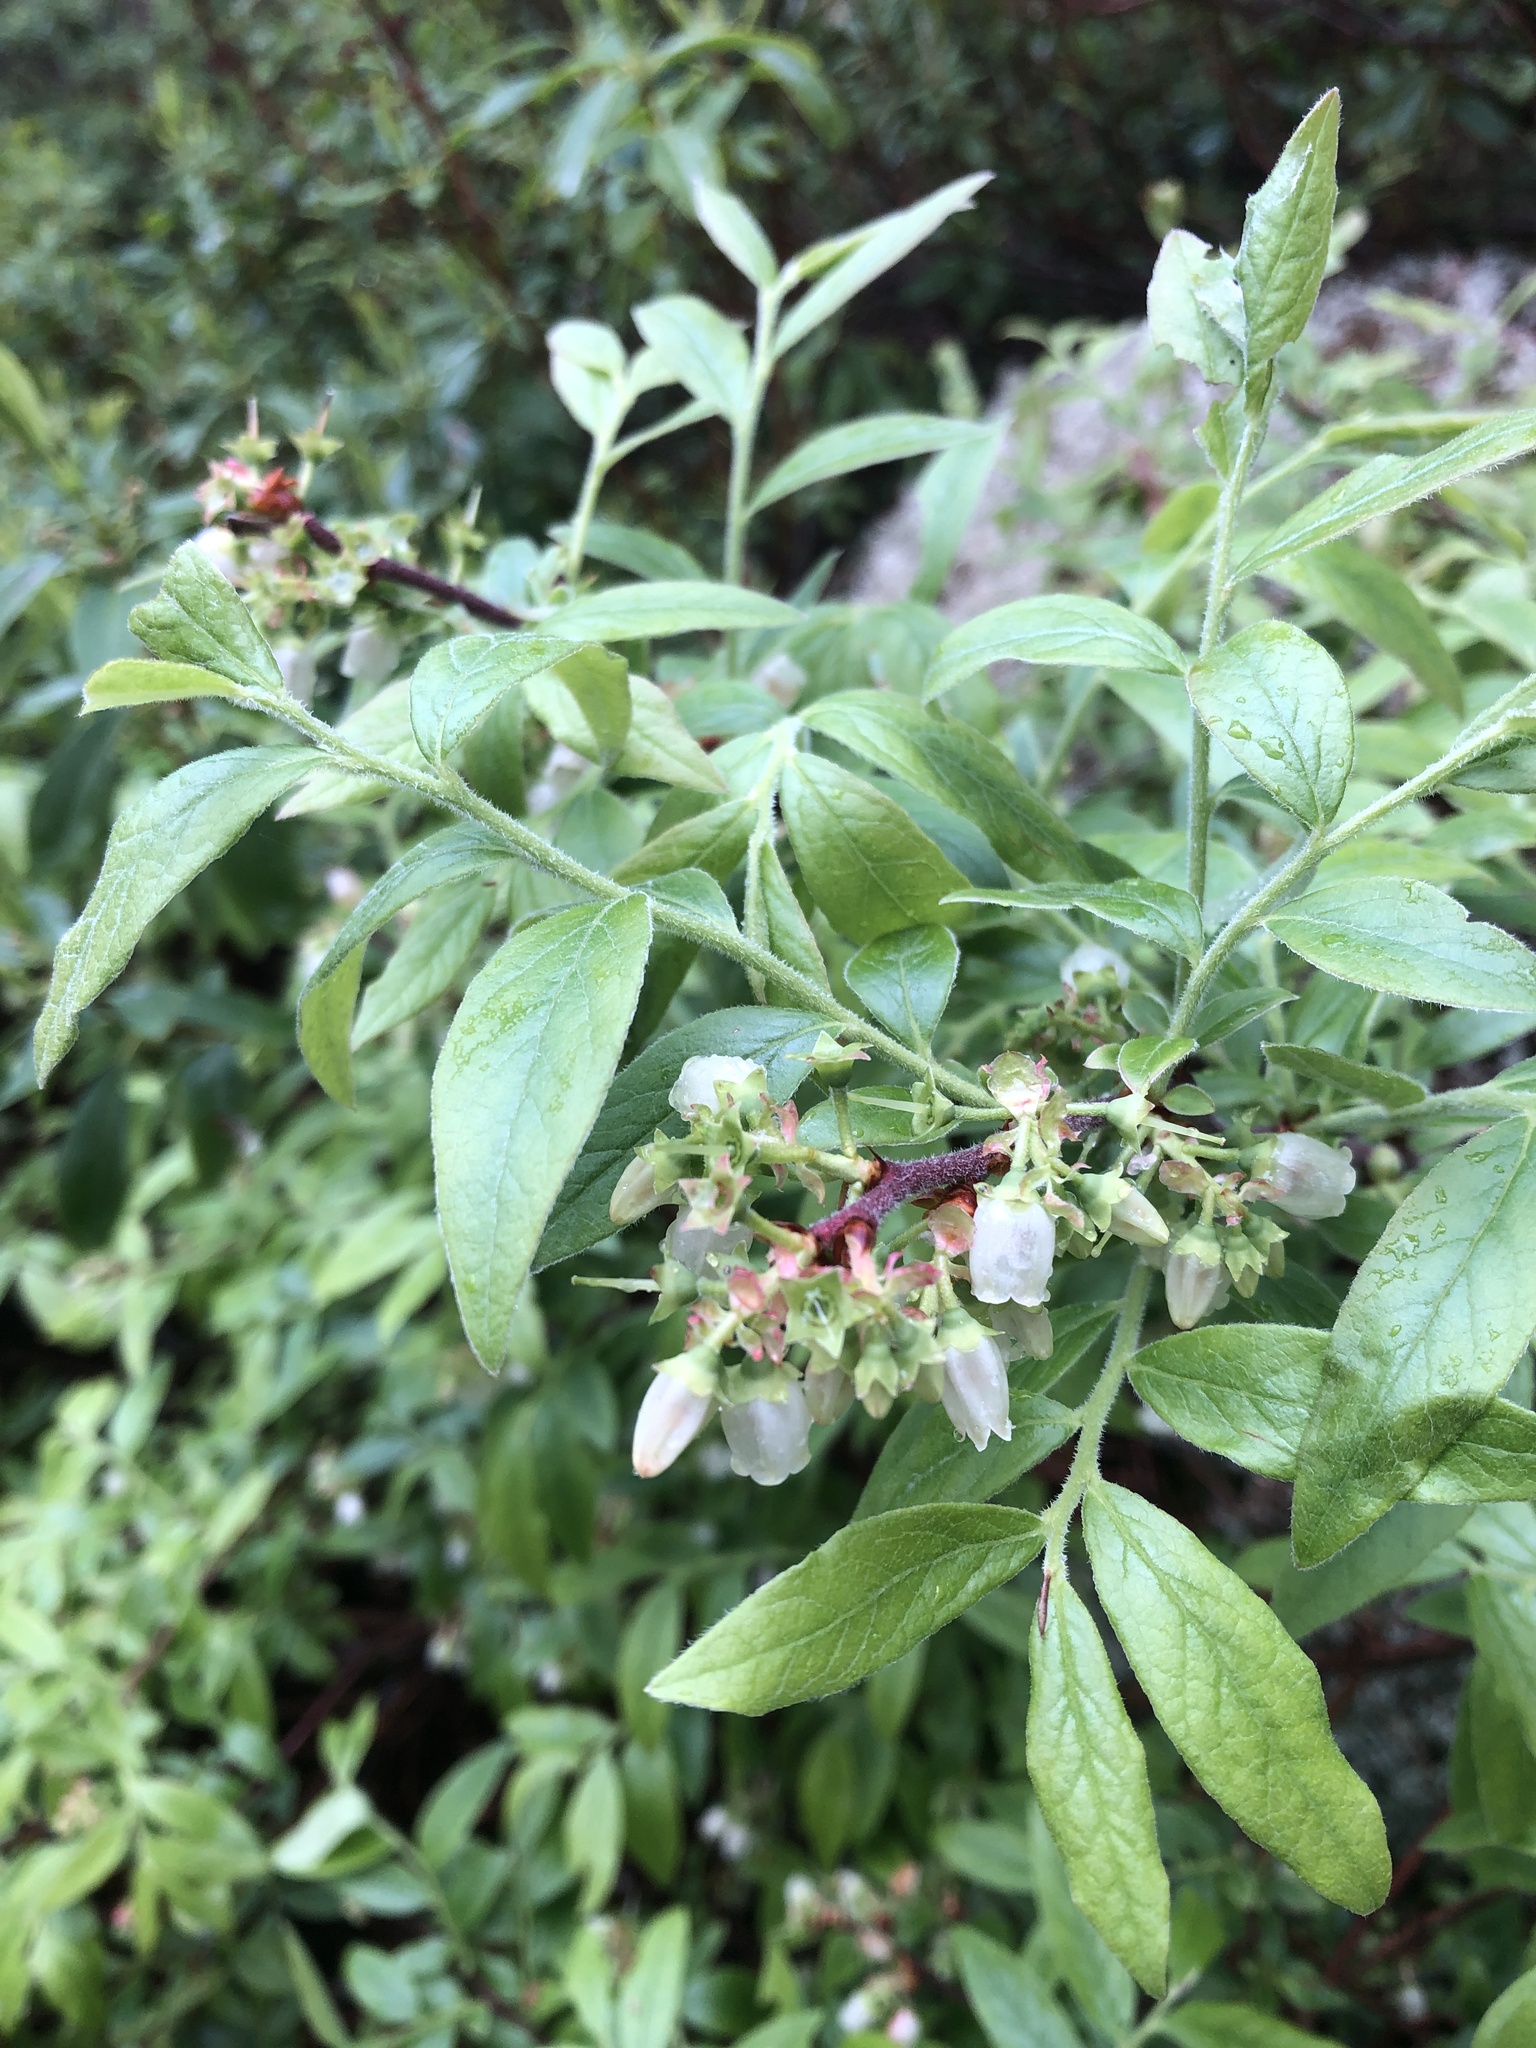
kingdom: Plantae
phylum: Tracheophyta
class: Magnoliopsida
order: Ericales
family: Ericaceae
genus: Vaccinium
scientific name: Vaccinium myrtilloides
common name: Canada blueberry
